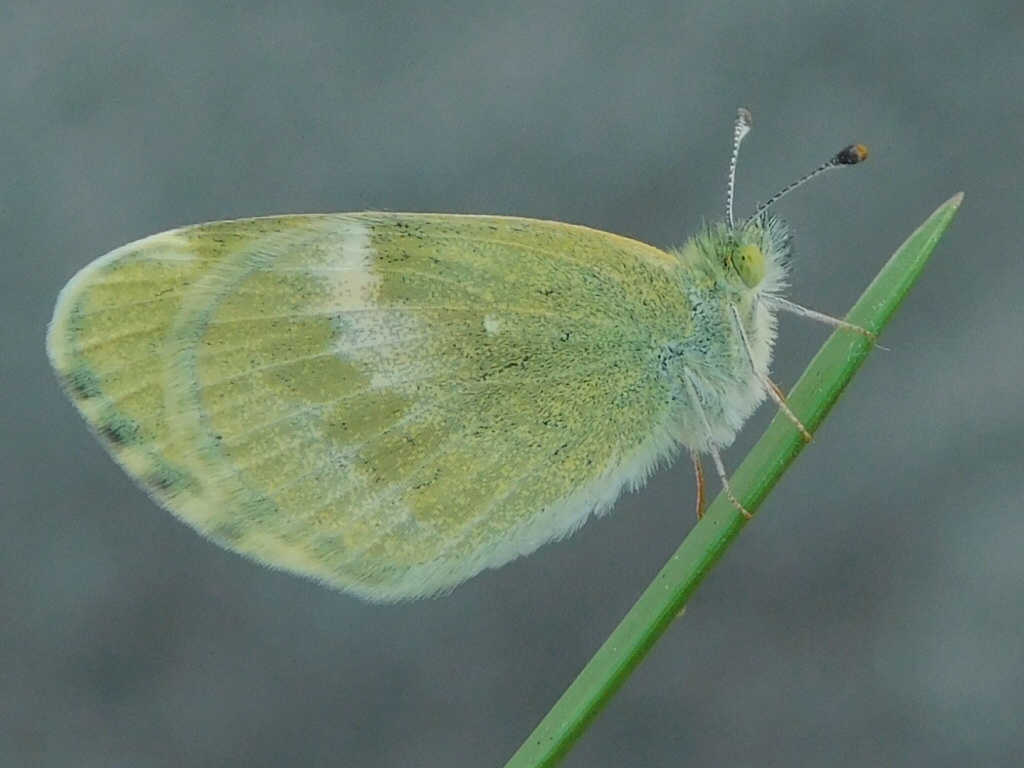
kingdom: Animalia
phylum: Arthropoda
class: Insecta
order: Lepidoptera
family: Pieridae
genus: Nathalis
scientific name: Nathalis iole
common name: Dainty sulphur
